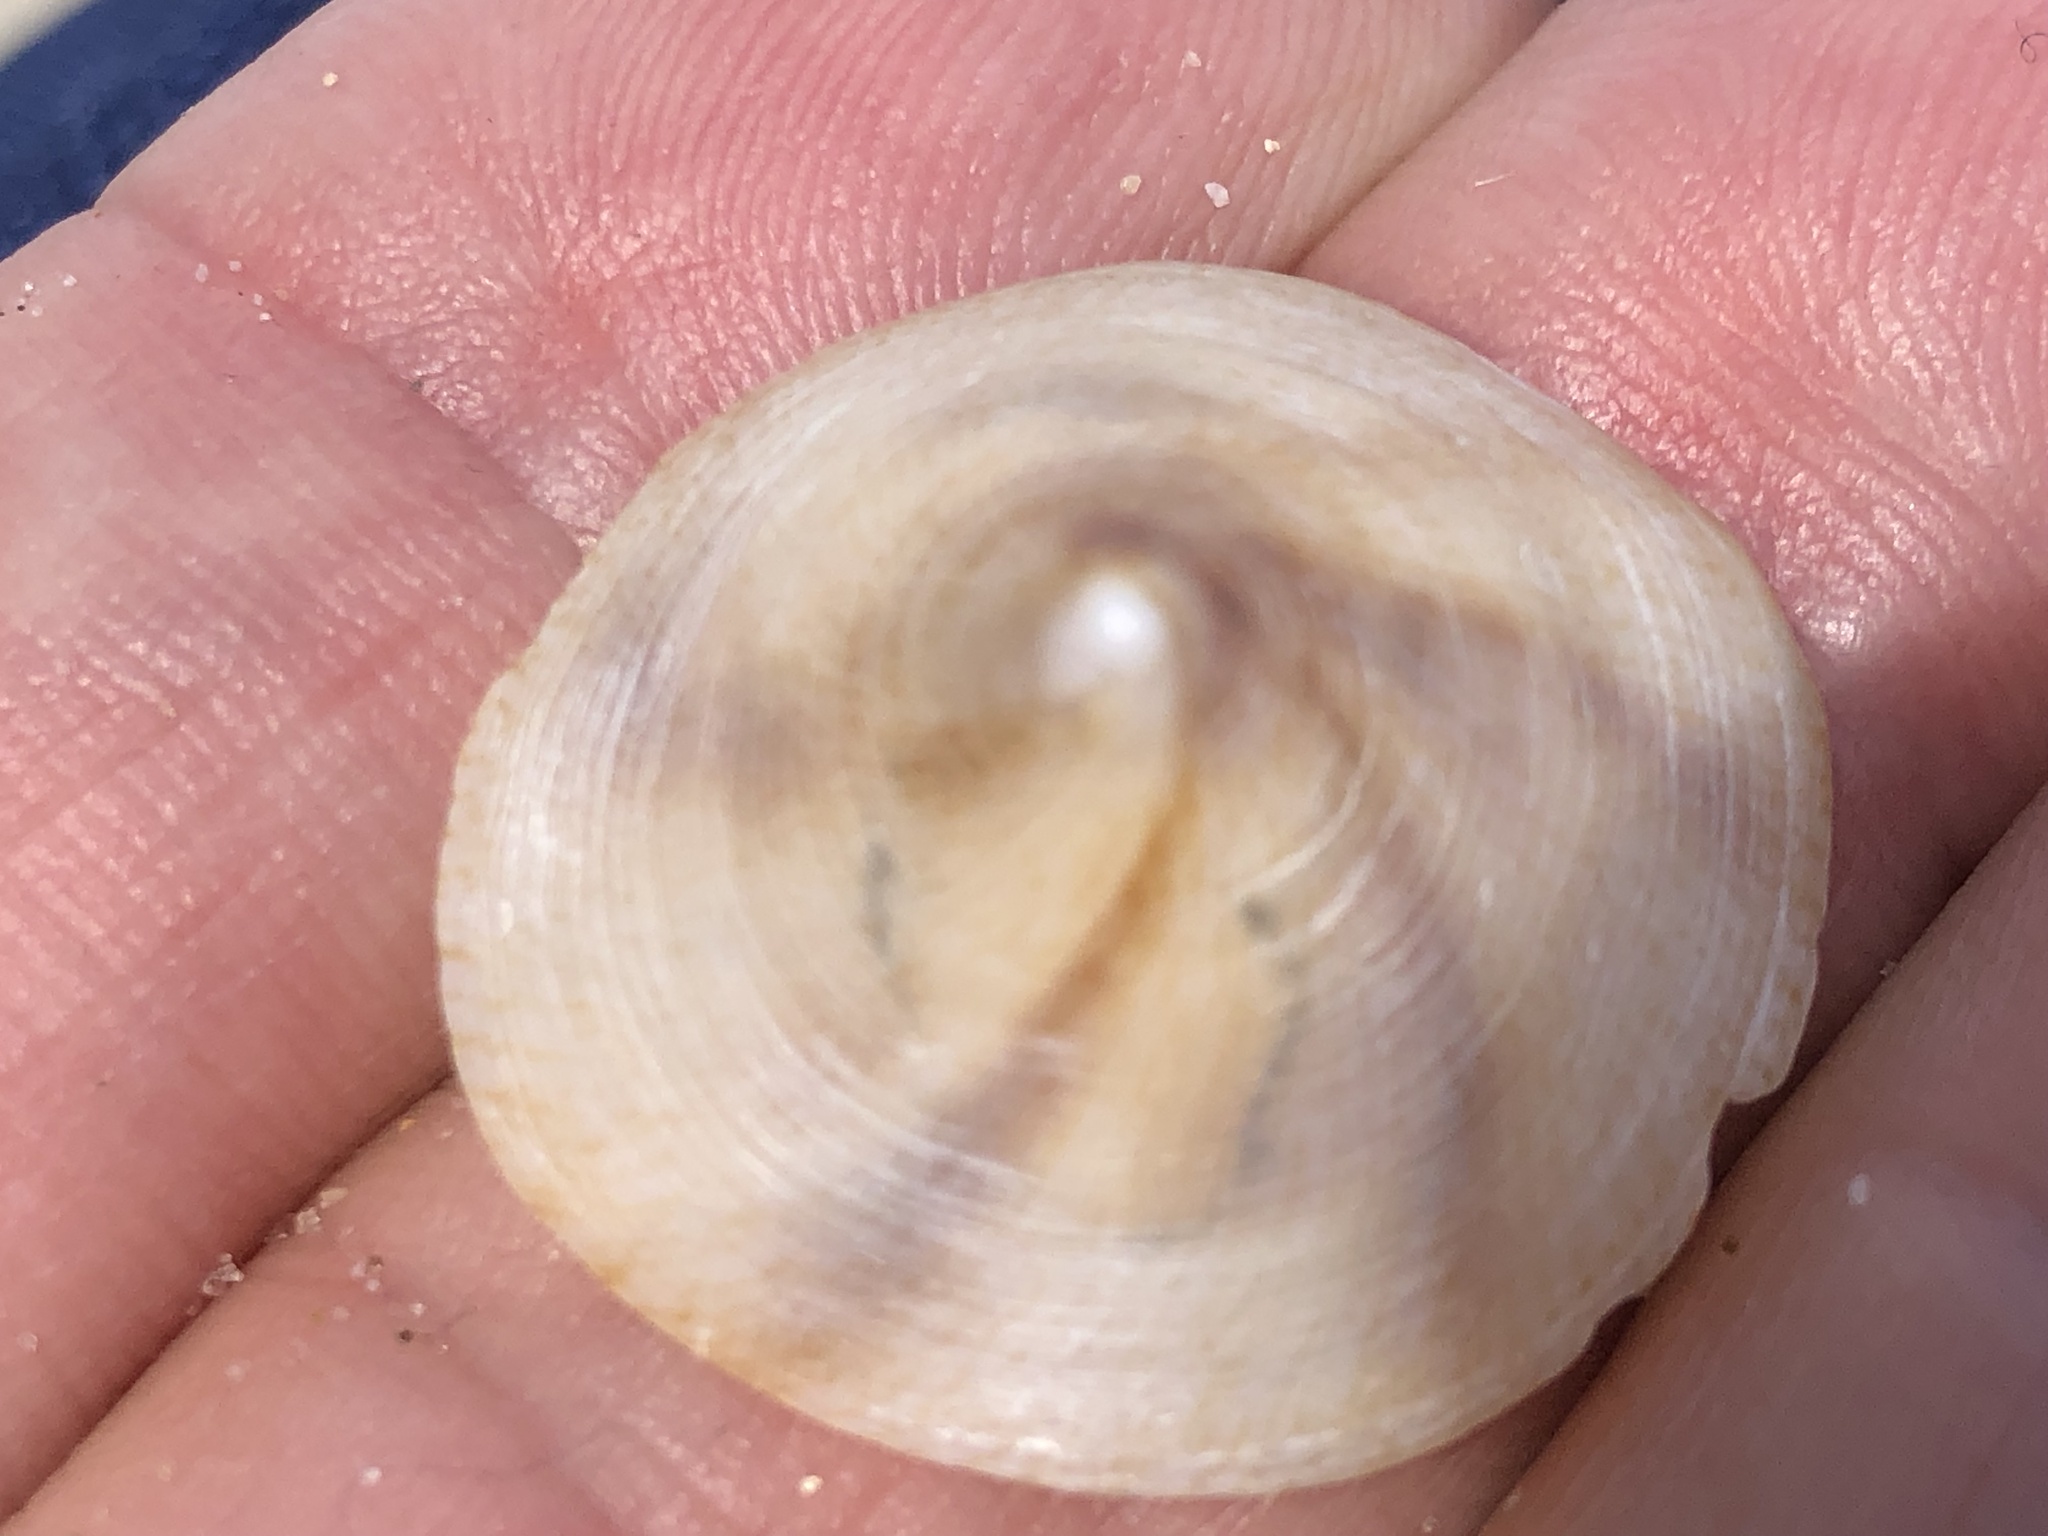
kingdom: Animalia
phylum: Mollusca
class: Gastropoda
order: Littorinimorpha
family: Calyptraeidae
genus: Desmaulus
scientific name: Desmaulus extinctorium
